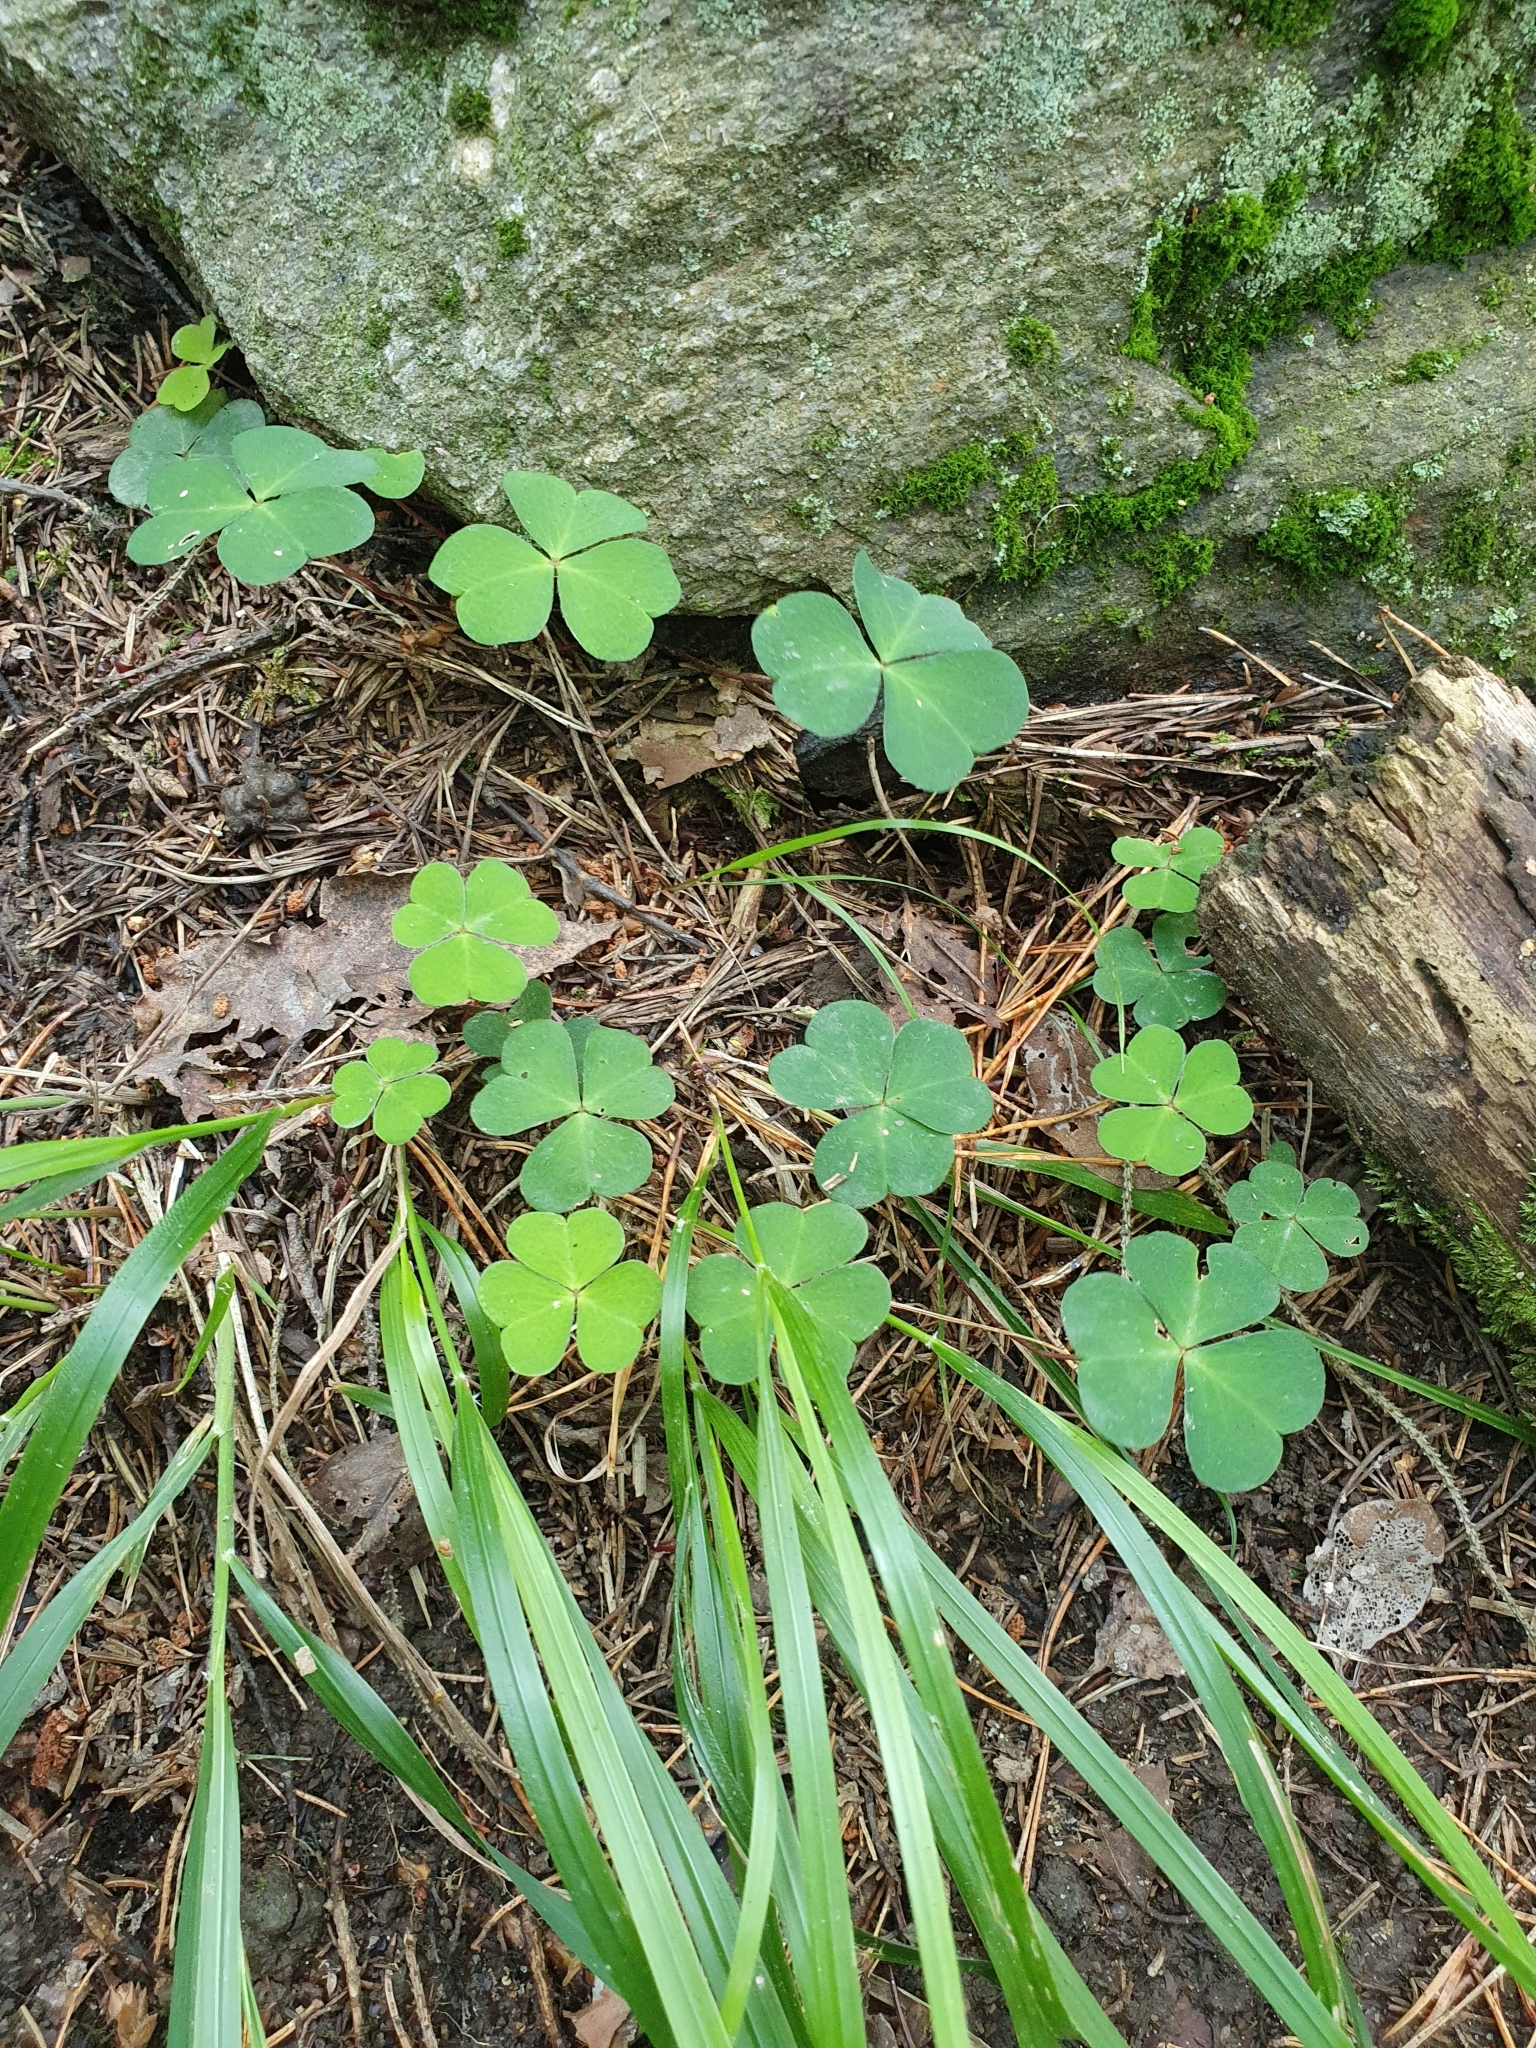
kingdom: Plantae
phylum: Tracheophyta
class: Magnoliopsida
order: Oxalidales
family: Oxalidaceae
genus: Oxalis
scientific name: Oxalis acetosella
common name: Wood-sorrel
